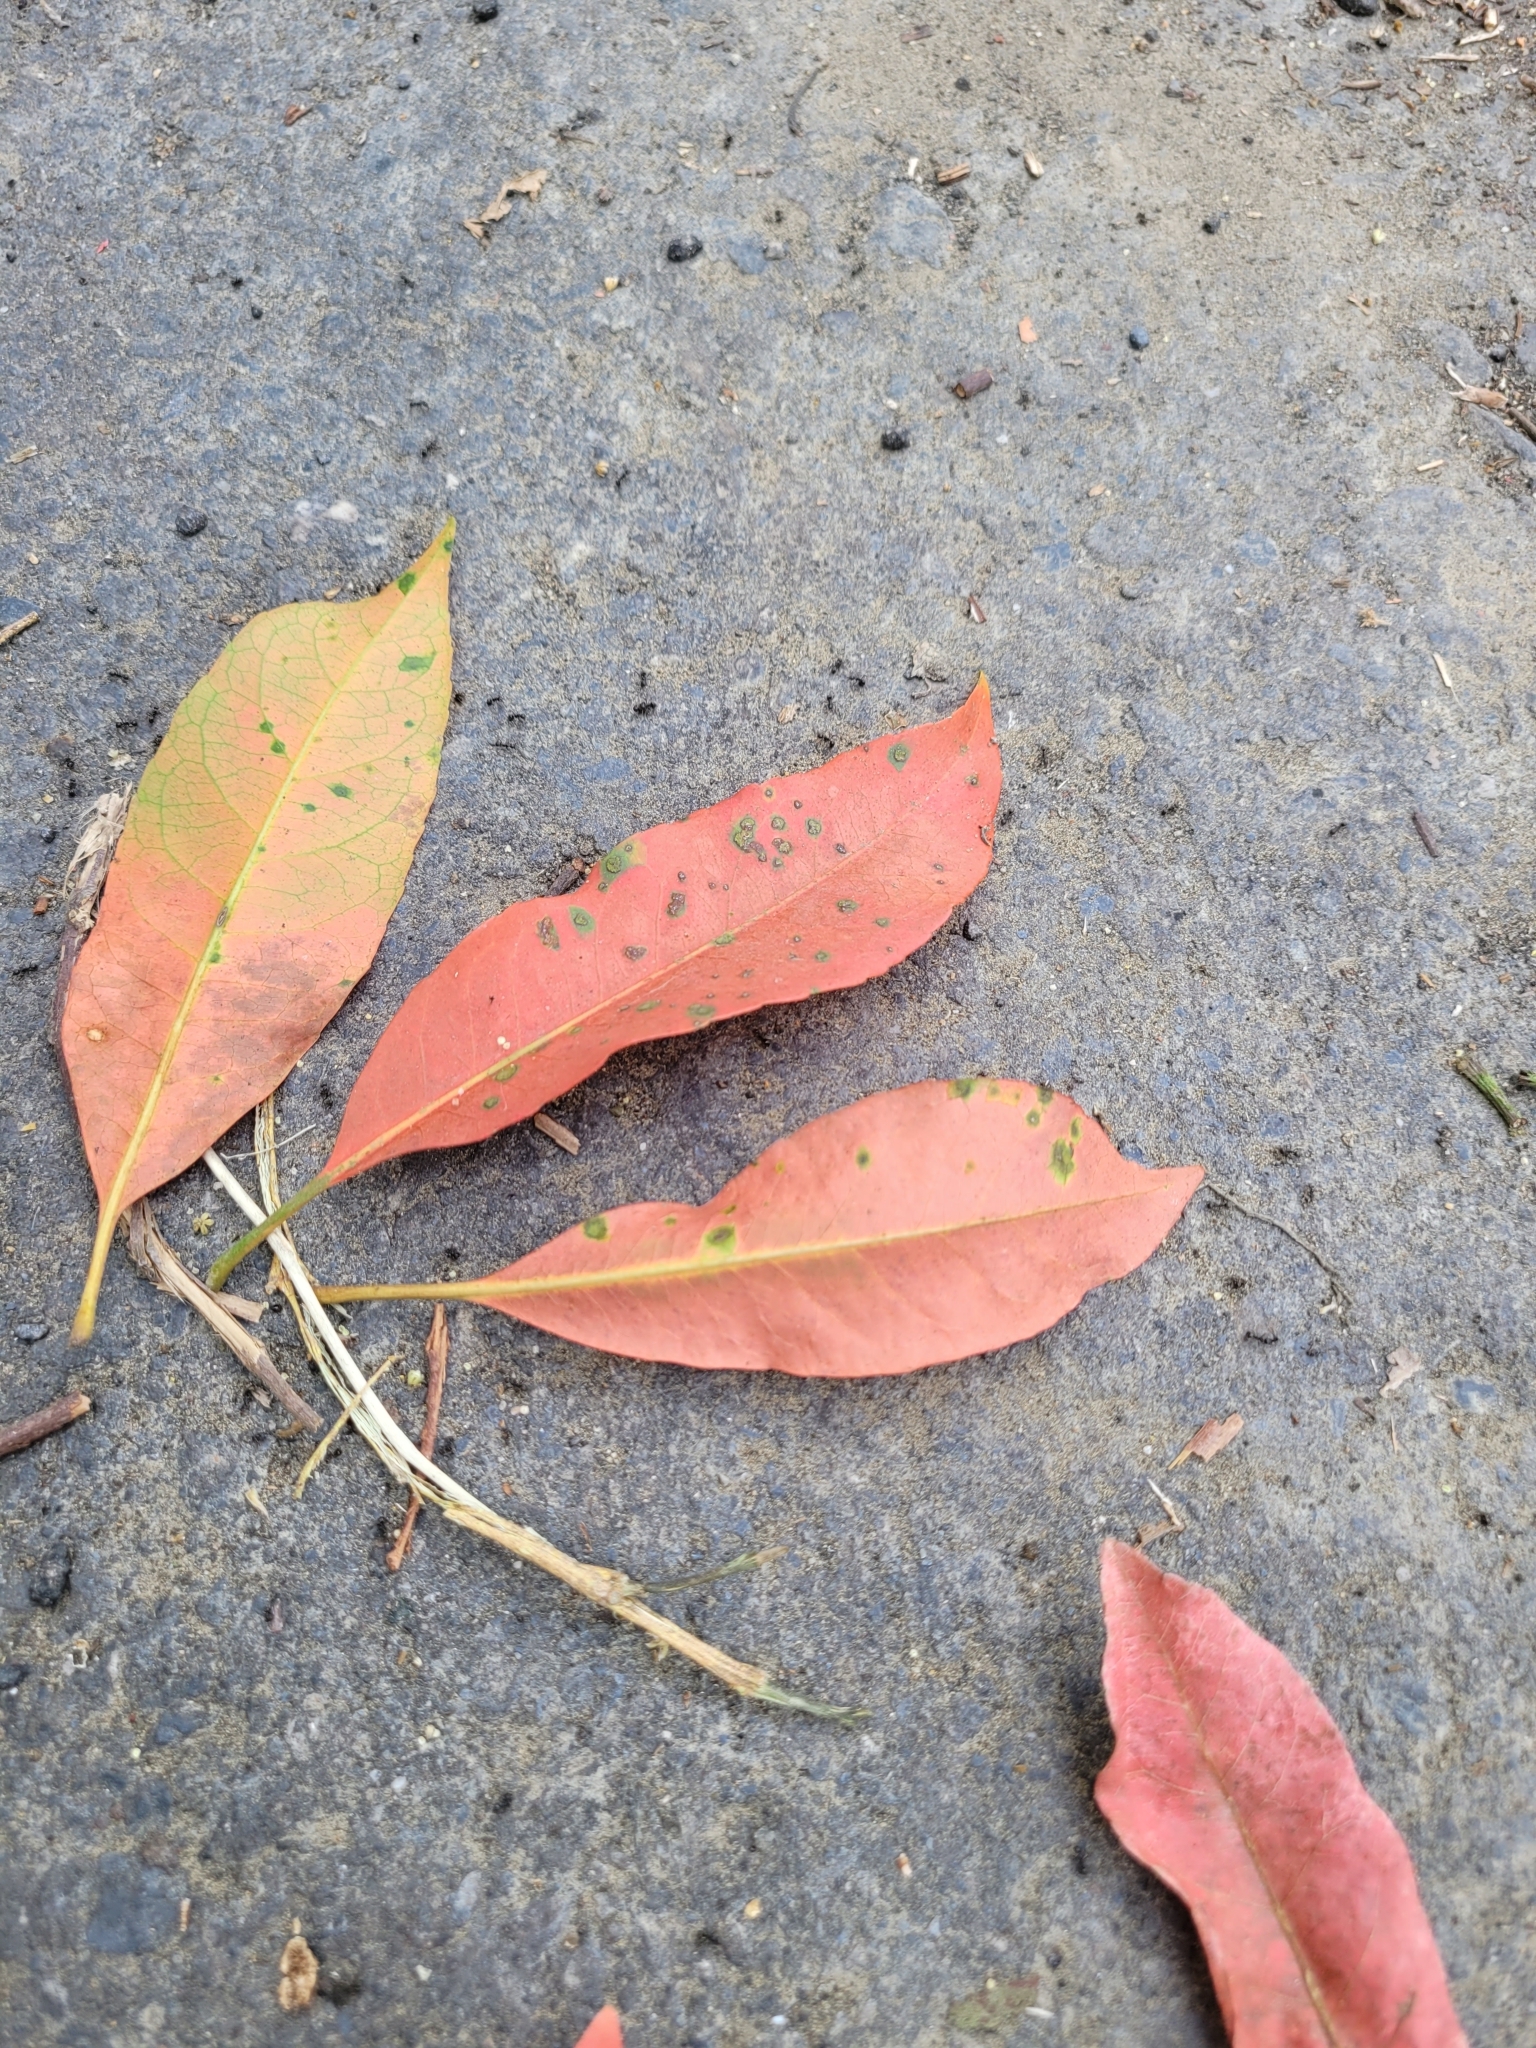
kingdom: Plantae
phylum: Tracheophyta
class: Magnoliopsida
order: Oxalidales
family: Elaeocarpaceae
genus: Elaeocarpus
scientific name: Elaeocarpus decipiens
